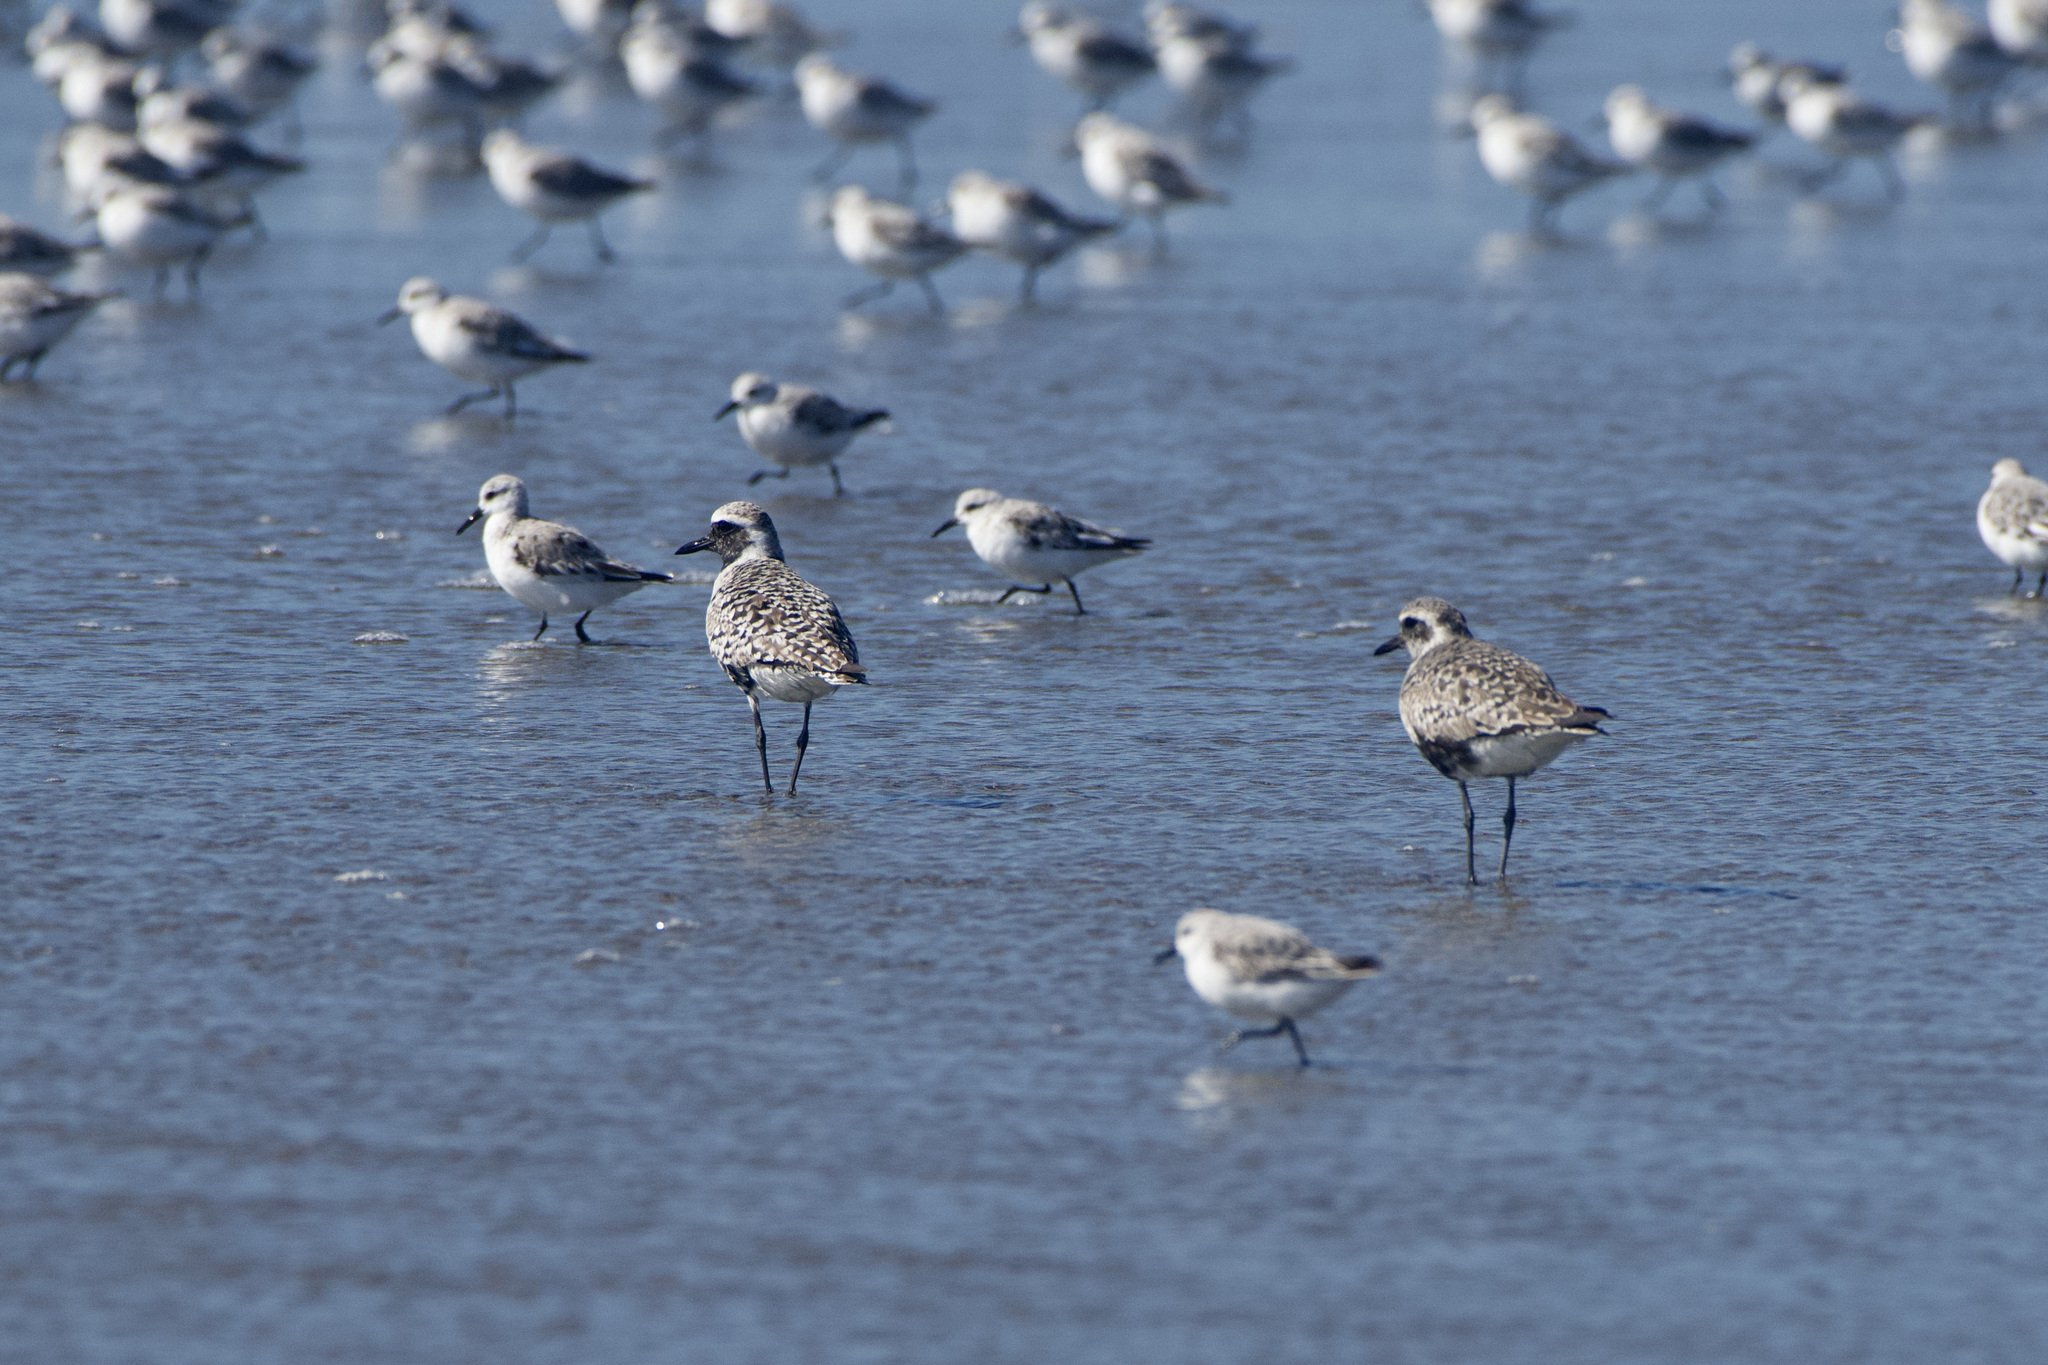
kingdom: Animalia
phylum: Chordata
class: Aves
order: Charadriiformes
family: Charadriidae
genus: Pluvialis
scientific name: Pluvialis squatarola
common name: Grey plover
